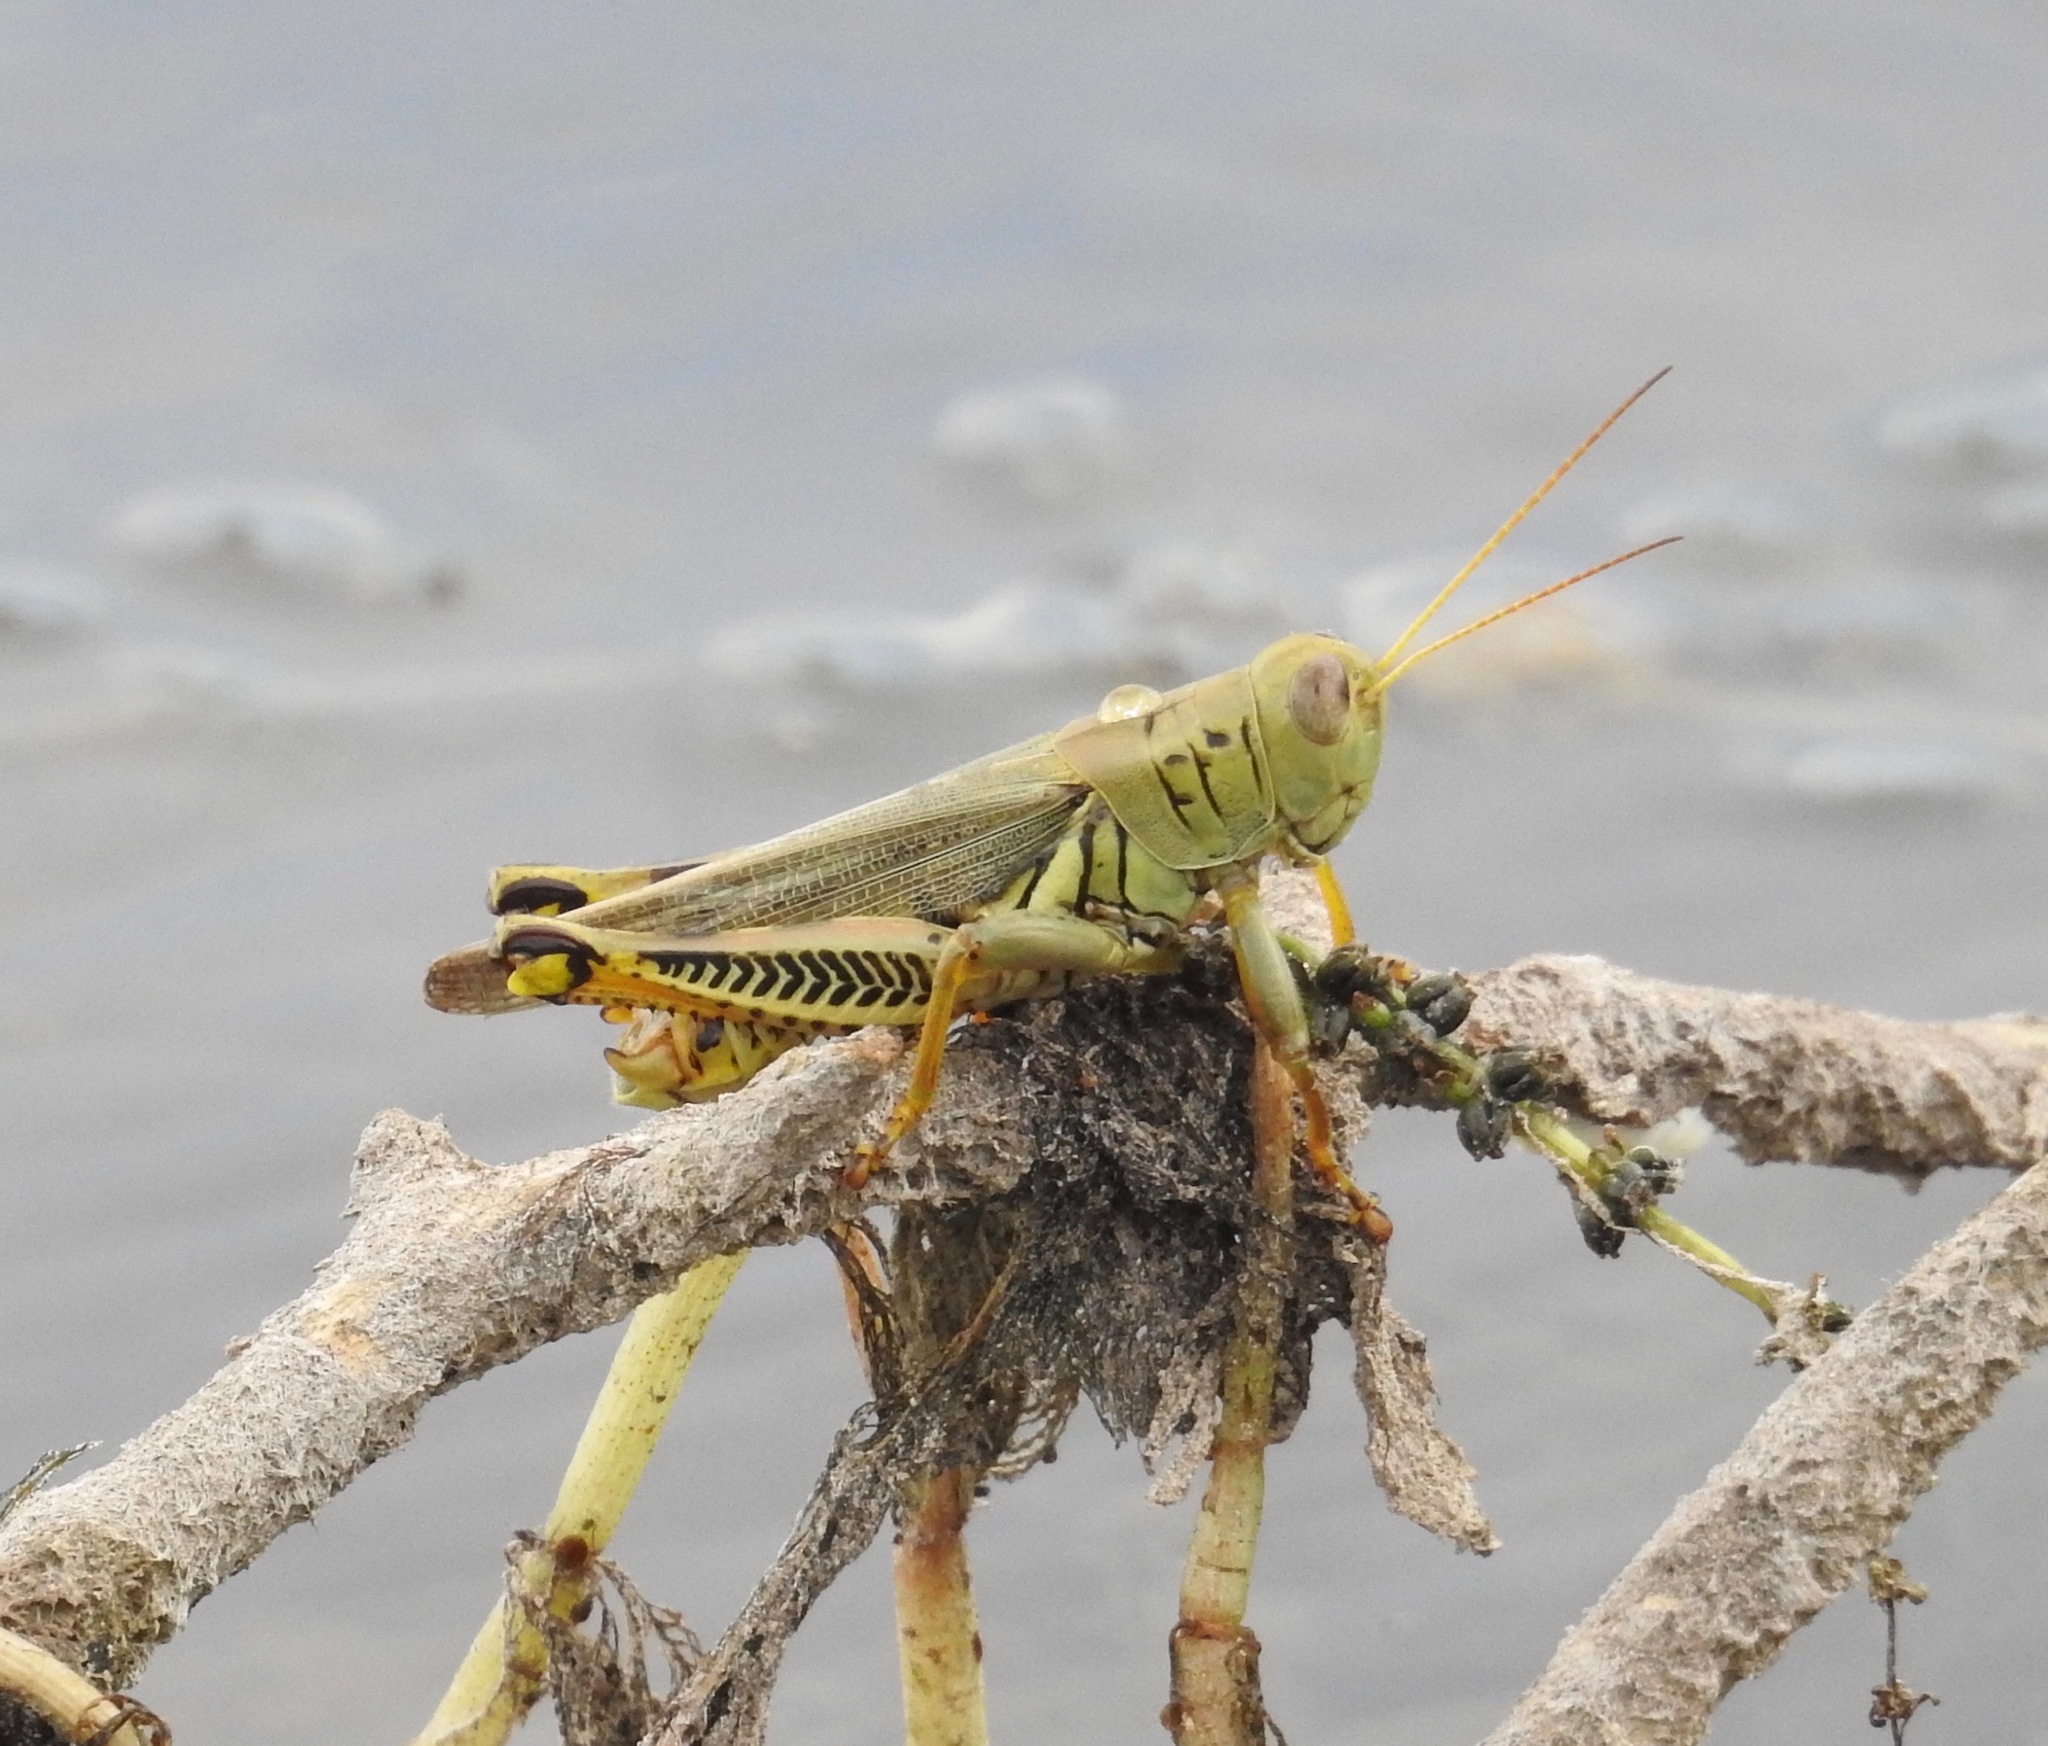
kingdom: Animalia
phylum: Arthropoda
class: Insecta
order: Orthoptera
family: Acrididae
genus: Melanoplus
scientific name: Melanoplus differentialis
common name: Differential grasshopper
